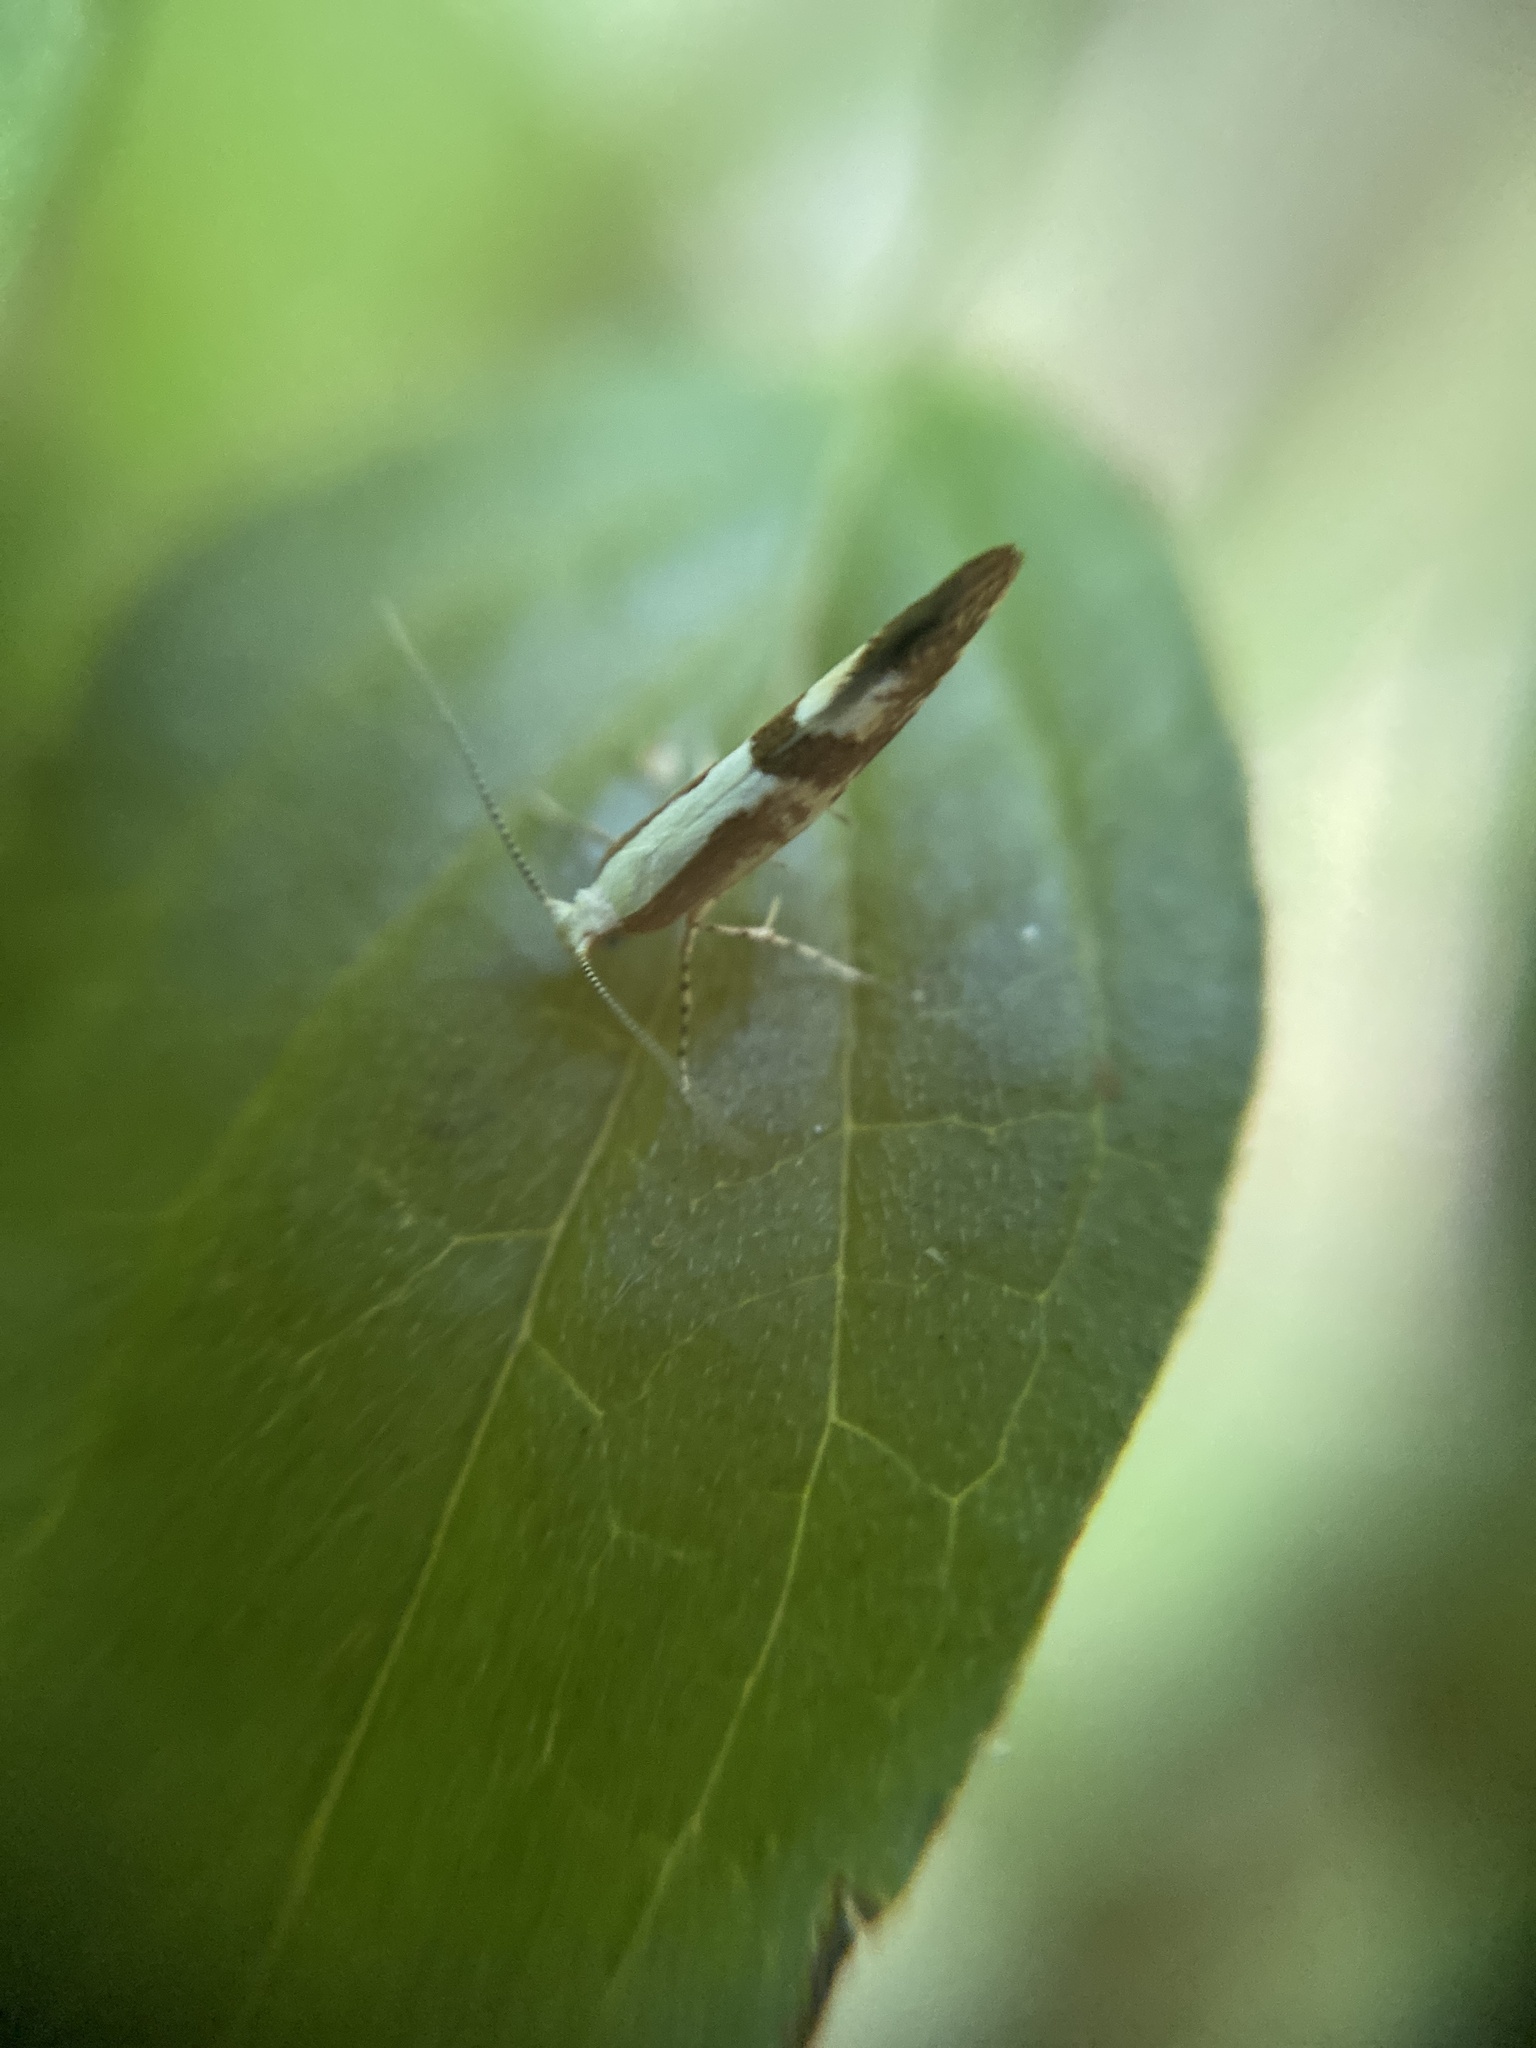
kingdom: Animalia
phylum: Arthropoda
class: Insecta
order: Lepidoptera
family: Argyresthiidae
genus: Argyresthia
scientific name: Argyresthia pruniella
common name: Cherry fruit moth
